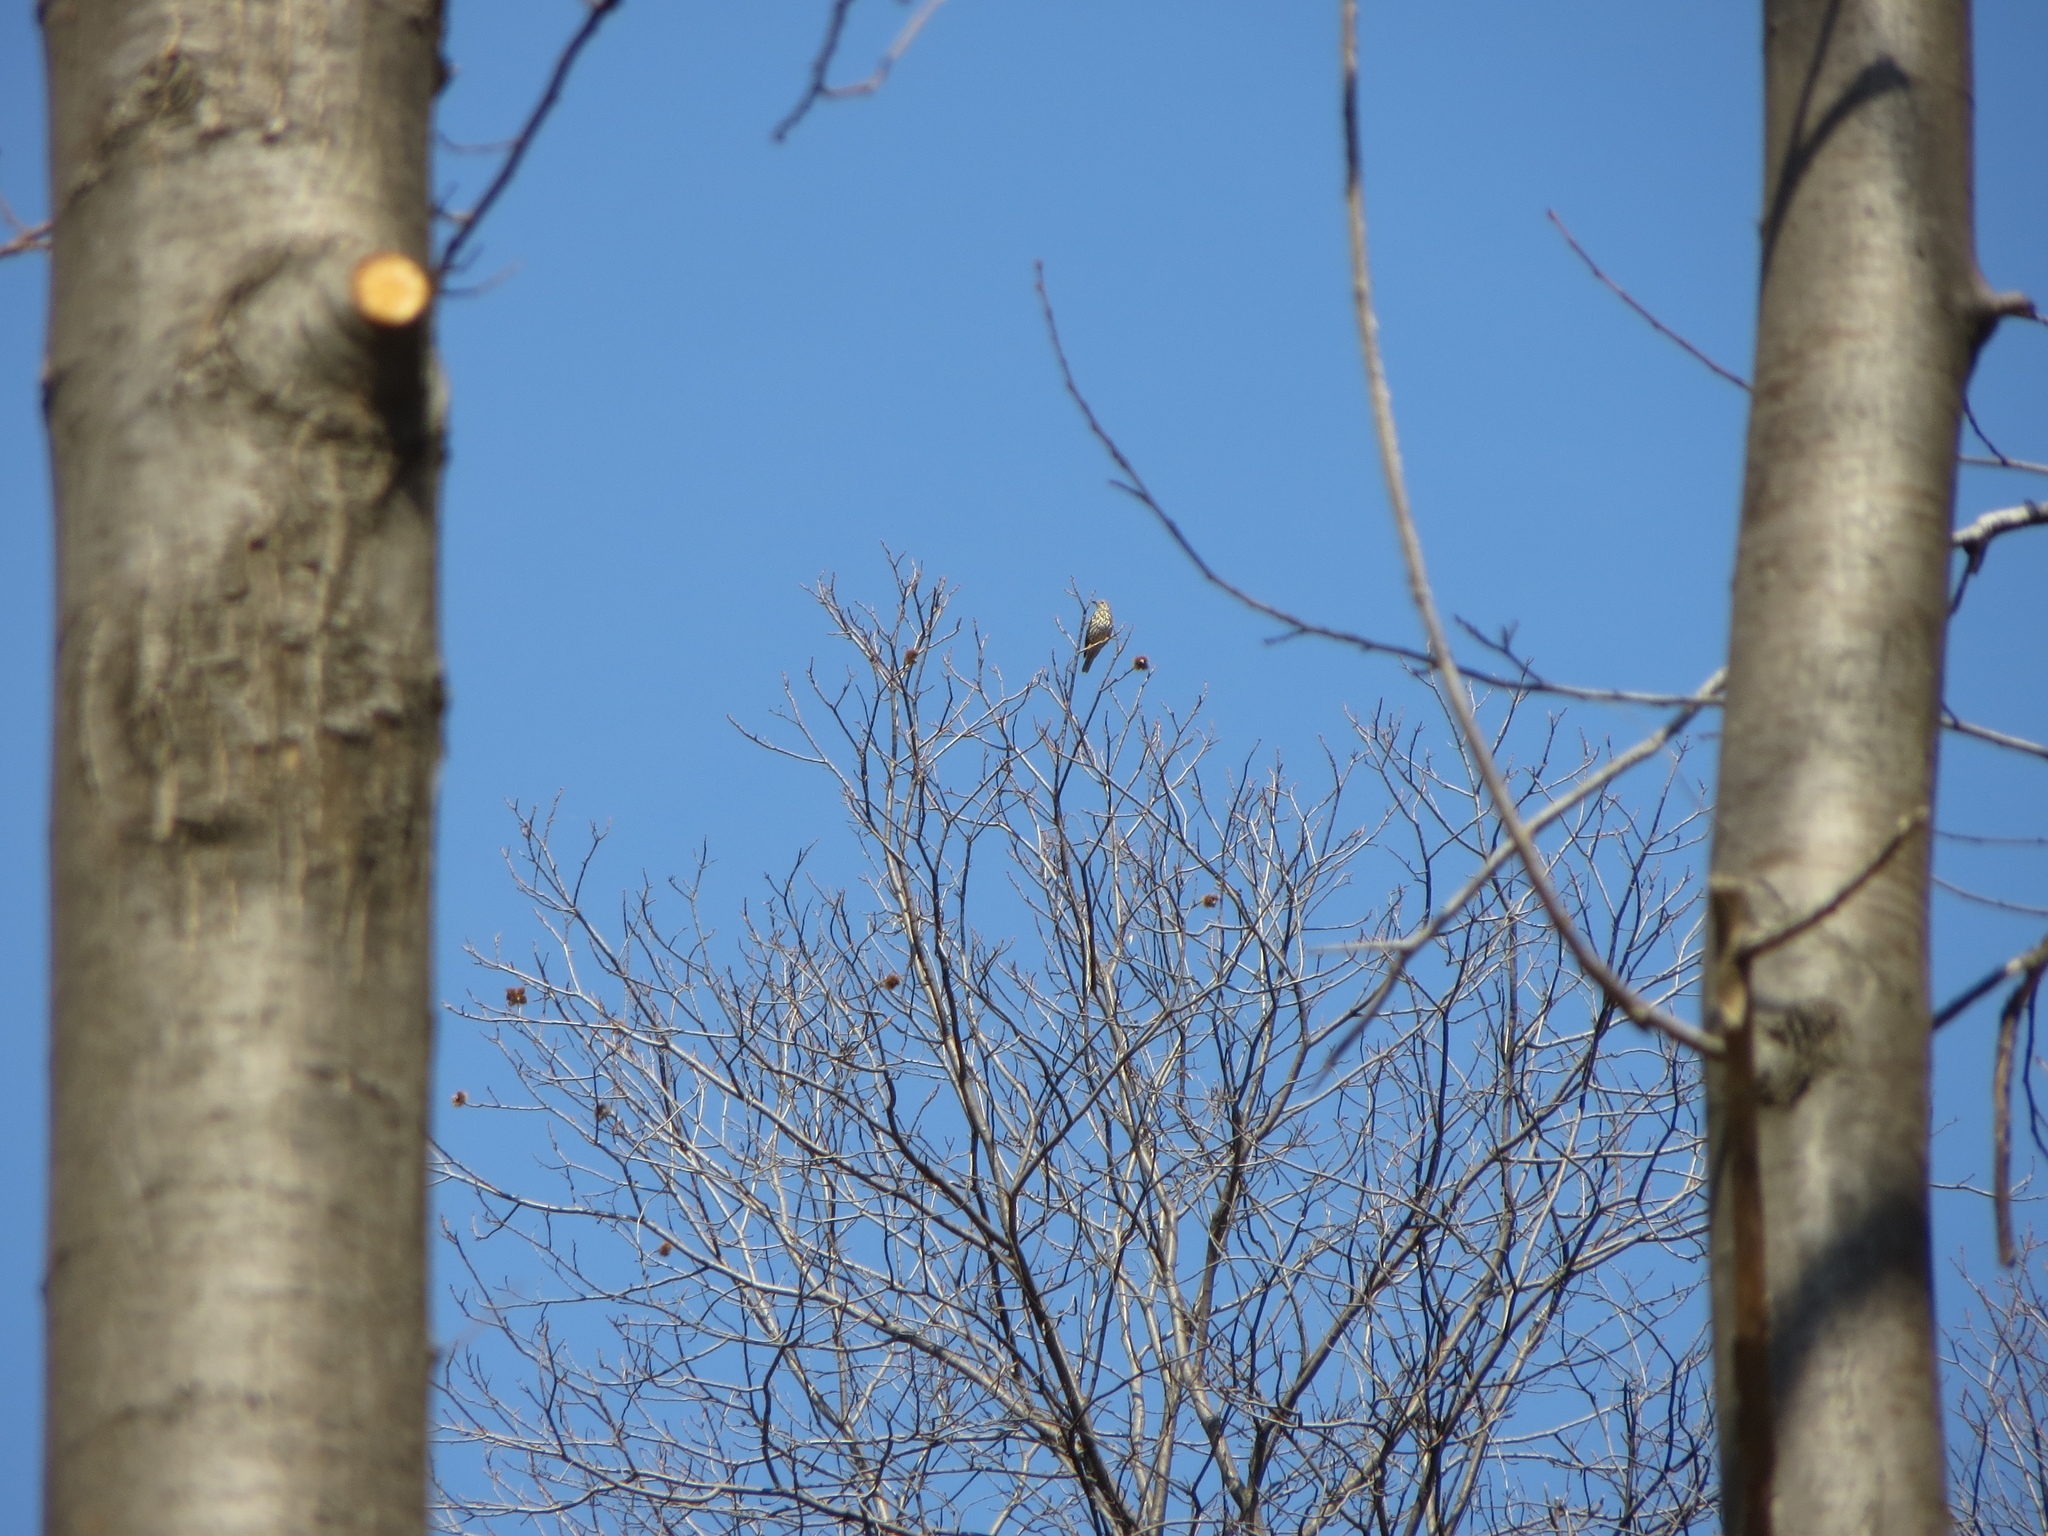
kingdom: Animalia
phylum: Chordata
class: Aves
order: Passeriformes
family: Turdidae
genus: Turdus
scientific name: Turdus viscivorus
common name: Mistle thrush
